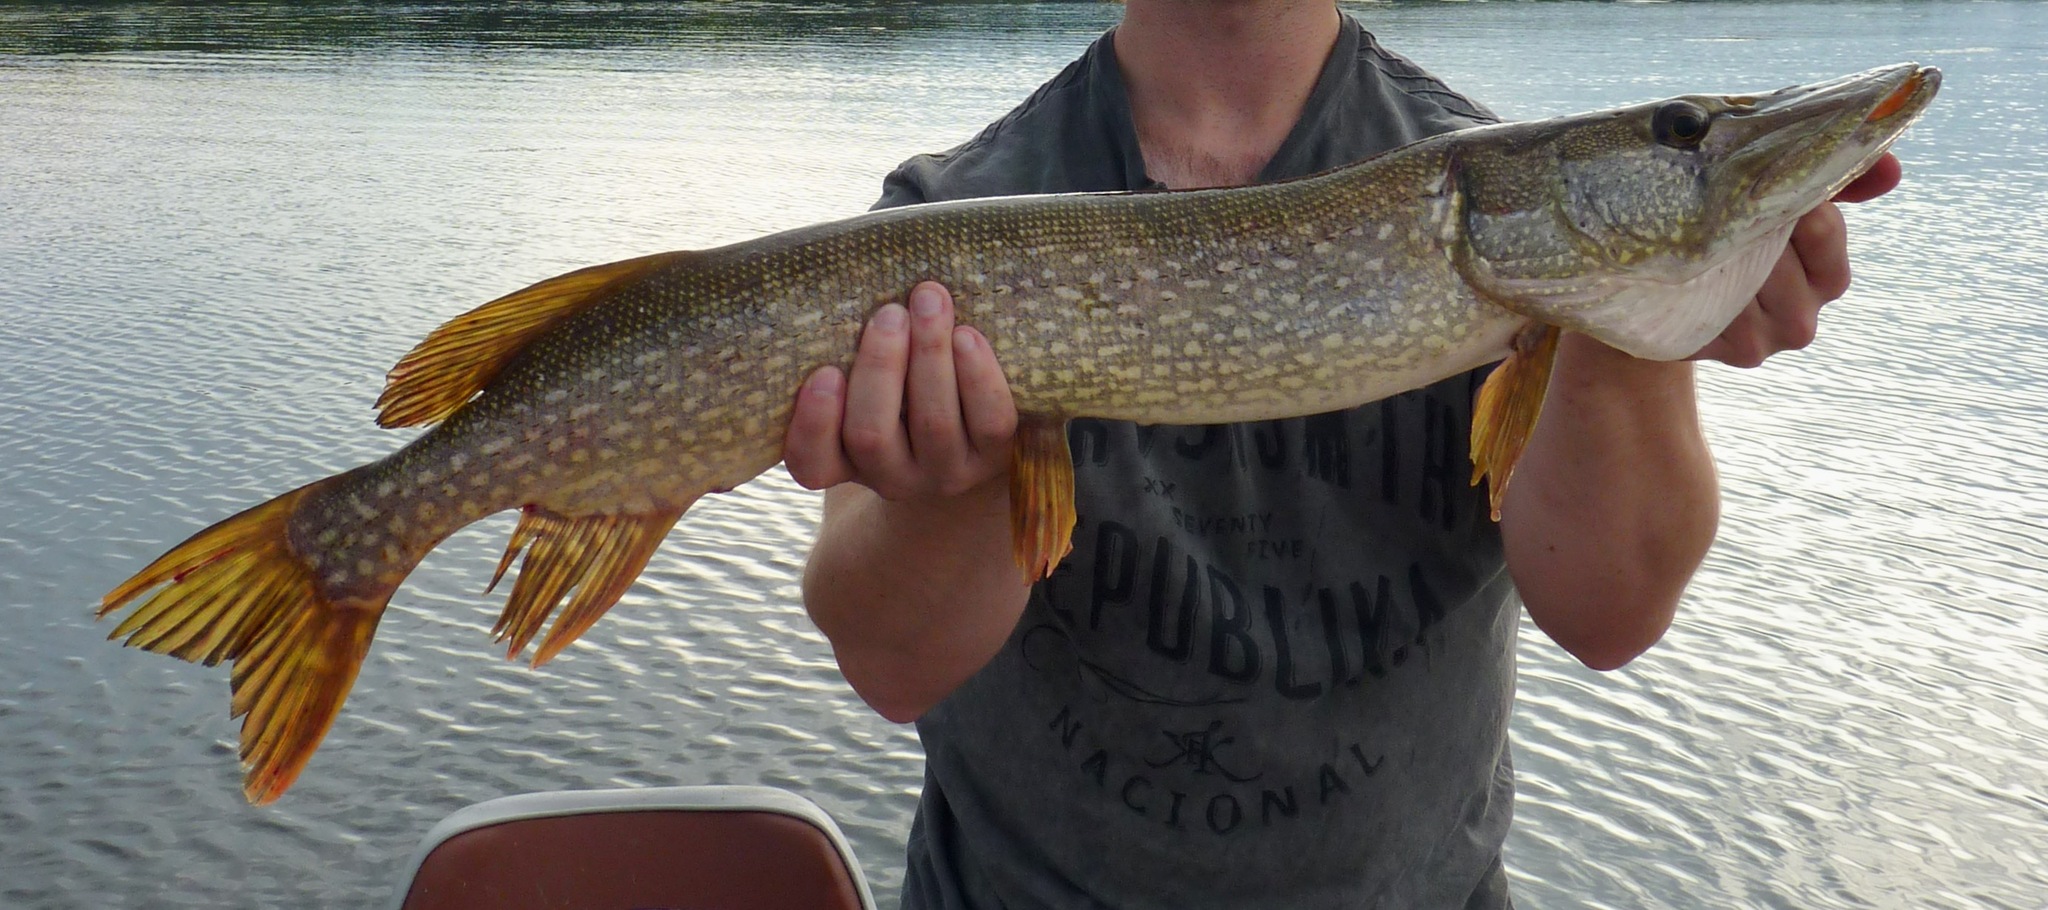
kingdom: Animalia
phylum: Chordata
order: Esociformes
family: Esocidae
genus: Esox
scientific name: Esox lucius
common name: Northern pike
